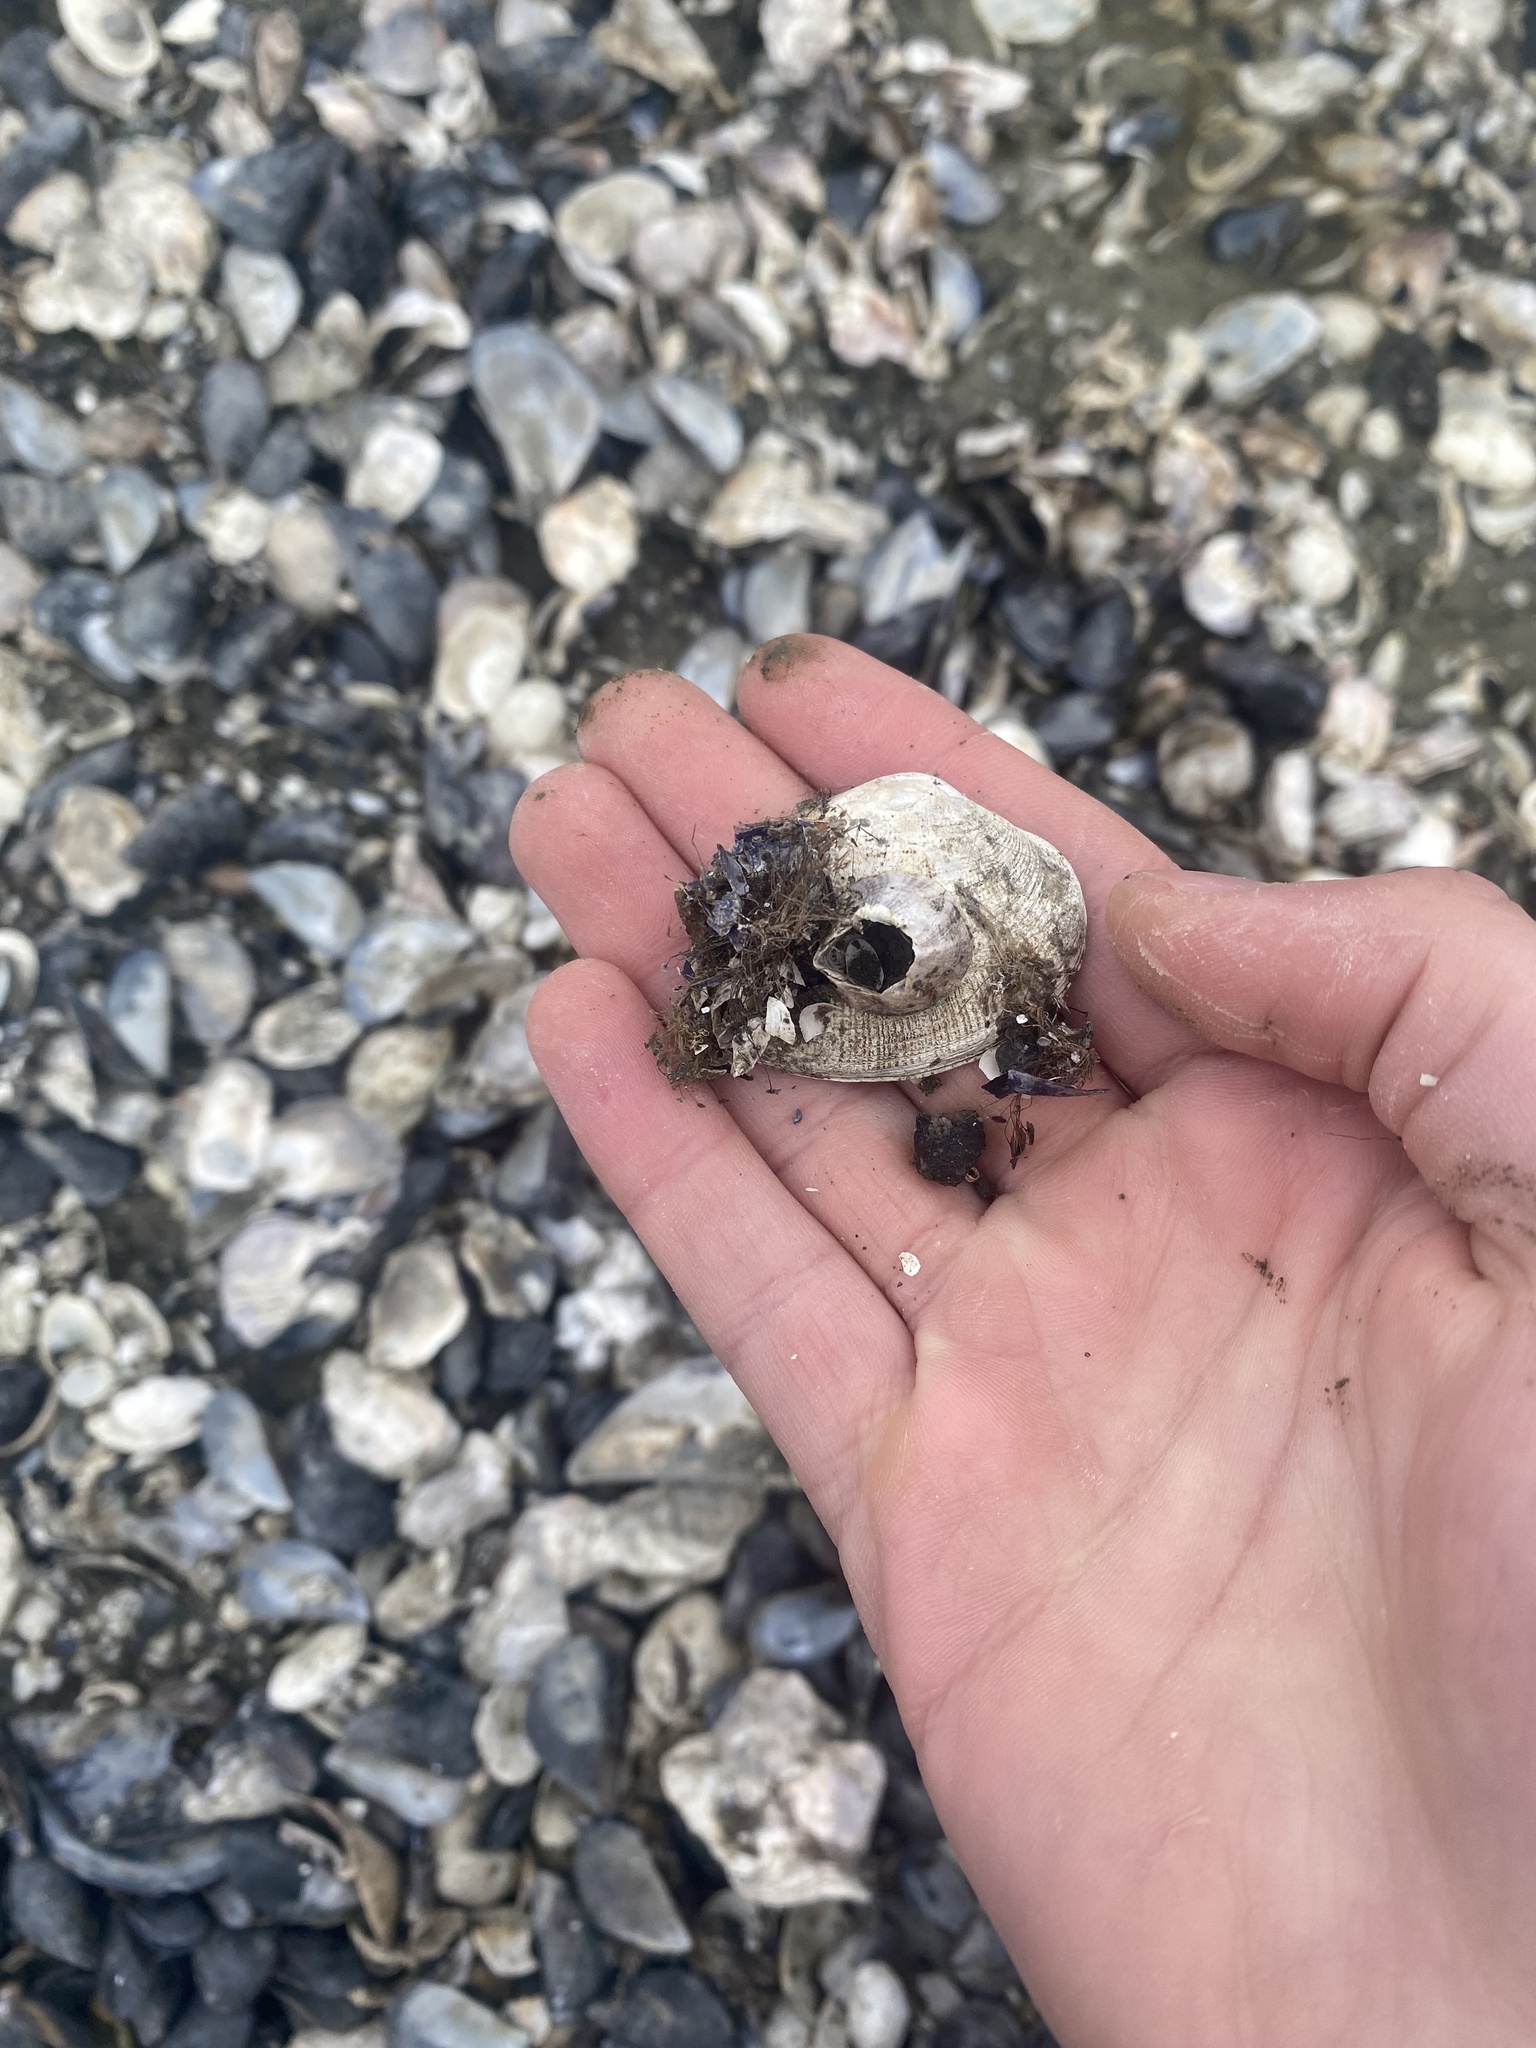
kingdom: Animalia
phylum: Mollusca
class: Bivalvia
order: Venerida
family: Veneridae
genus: Ruditapes
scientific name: Ruditapes philippinarum
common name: Manila clam
